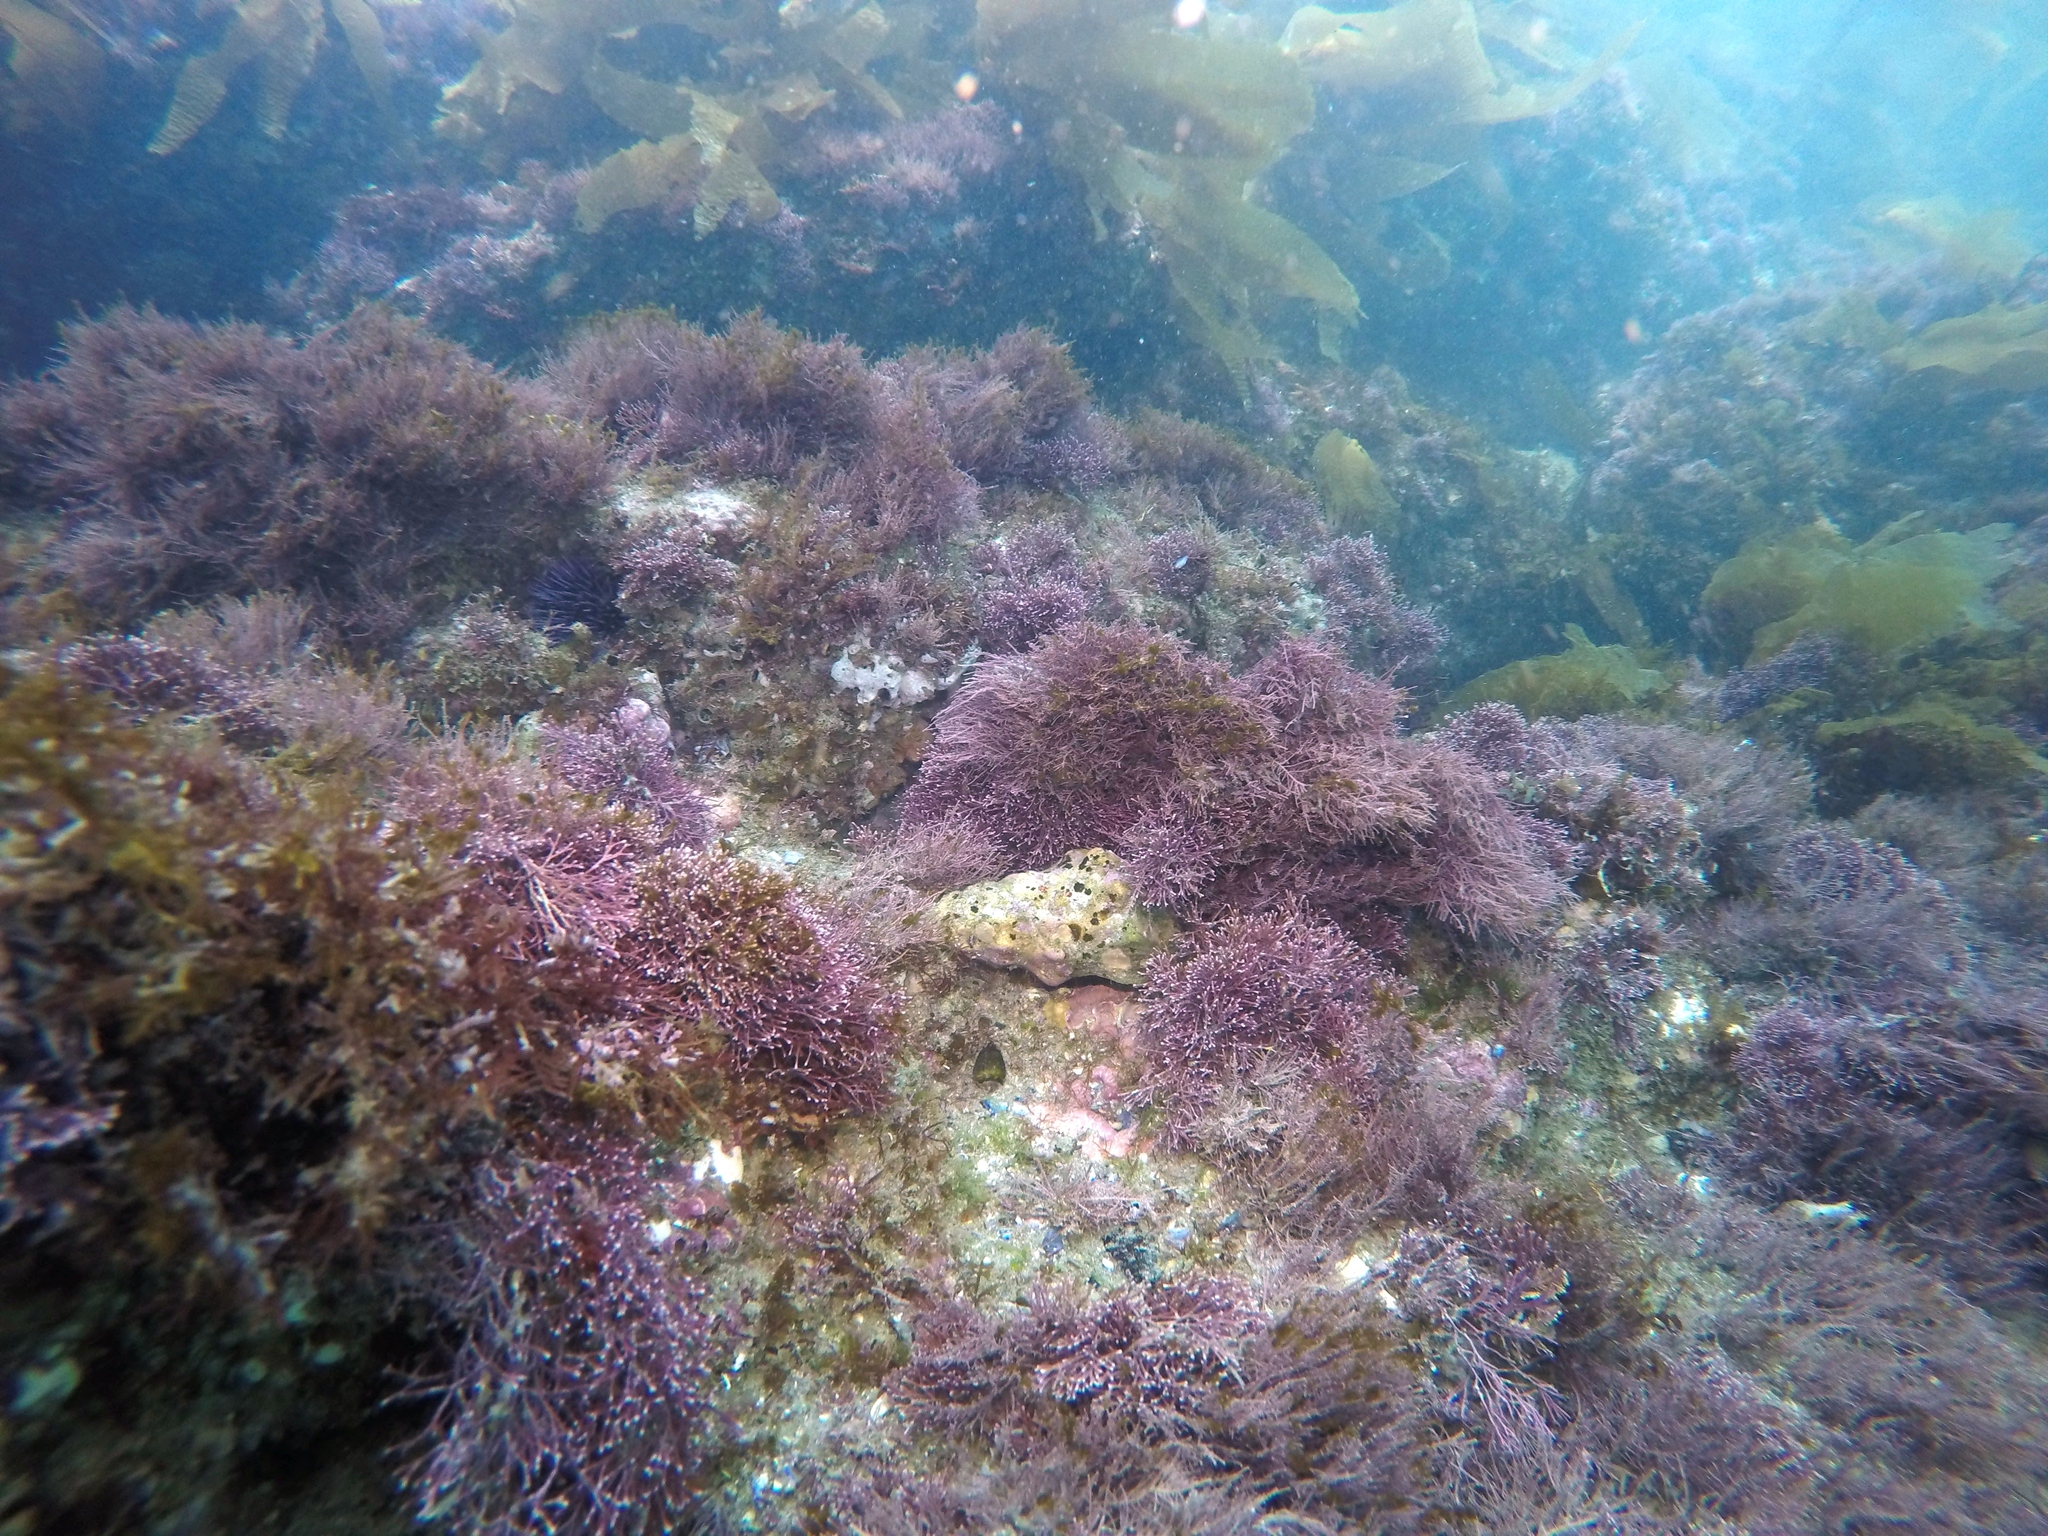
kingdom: Plantae
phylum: Rhodophyta
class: Florideophyceae
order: Corallinales
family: Lithophyllaceae
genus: Lithothrix
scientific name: Lithothrix aspergillum
